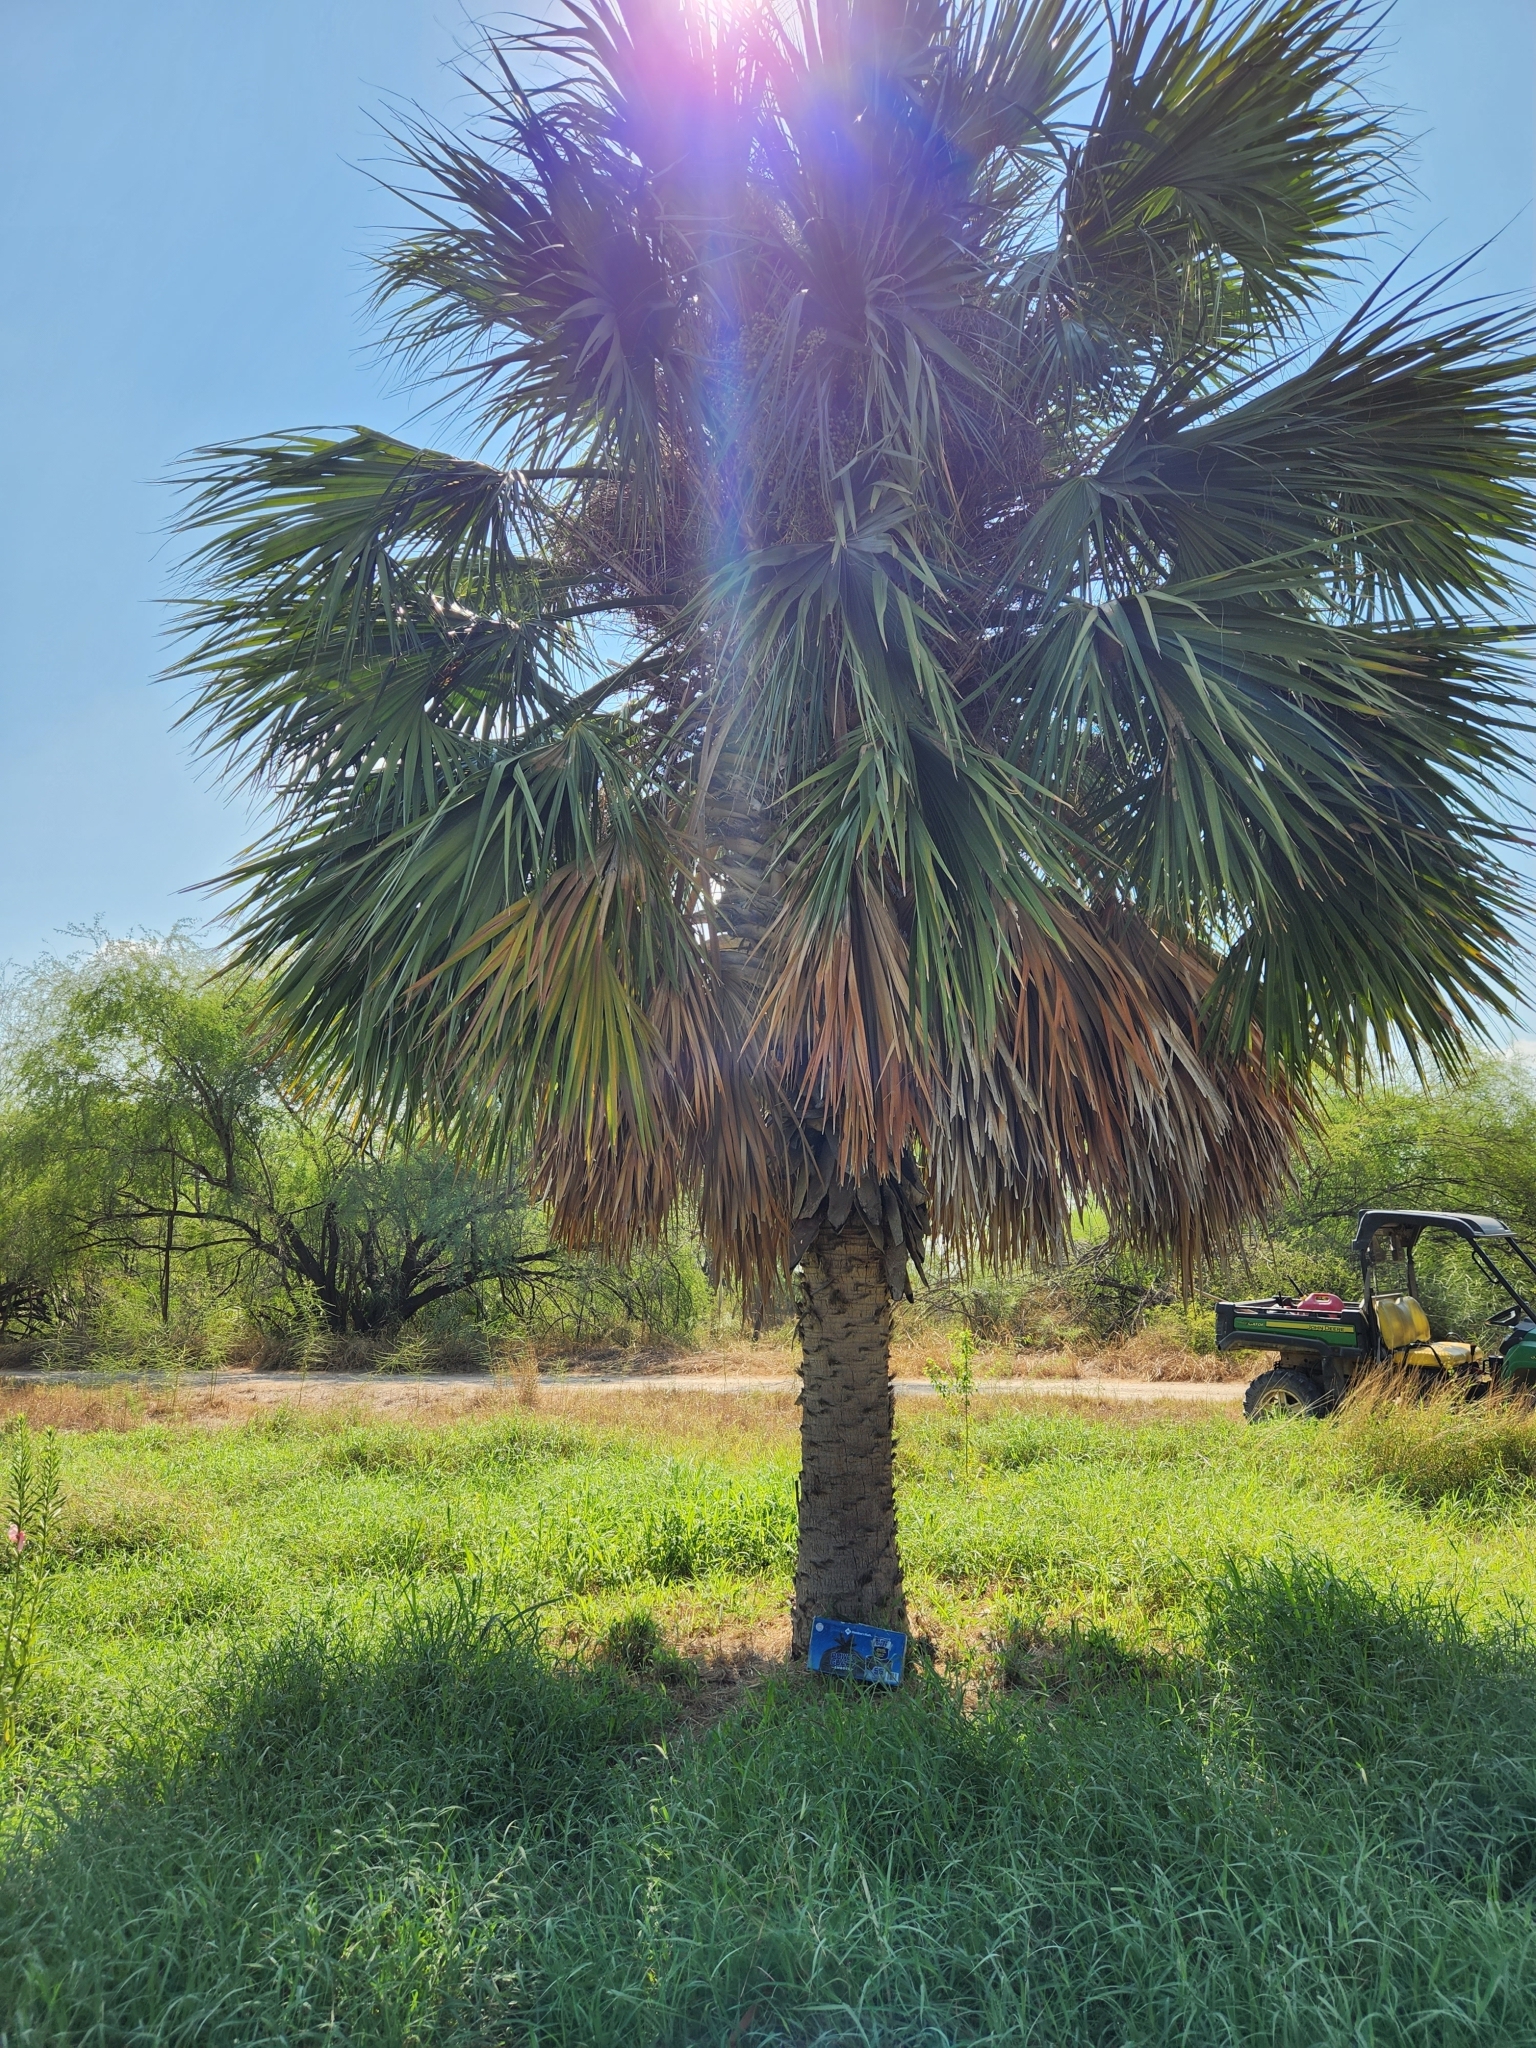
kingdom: Plantae
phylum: Tracheophyta
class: Liliopsida
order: Arecales
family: Arecaceae
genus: Sabal
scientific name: Sabal mexicana
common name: Texas palmetto
